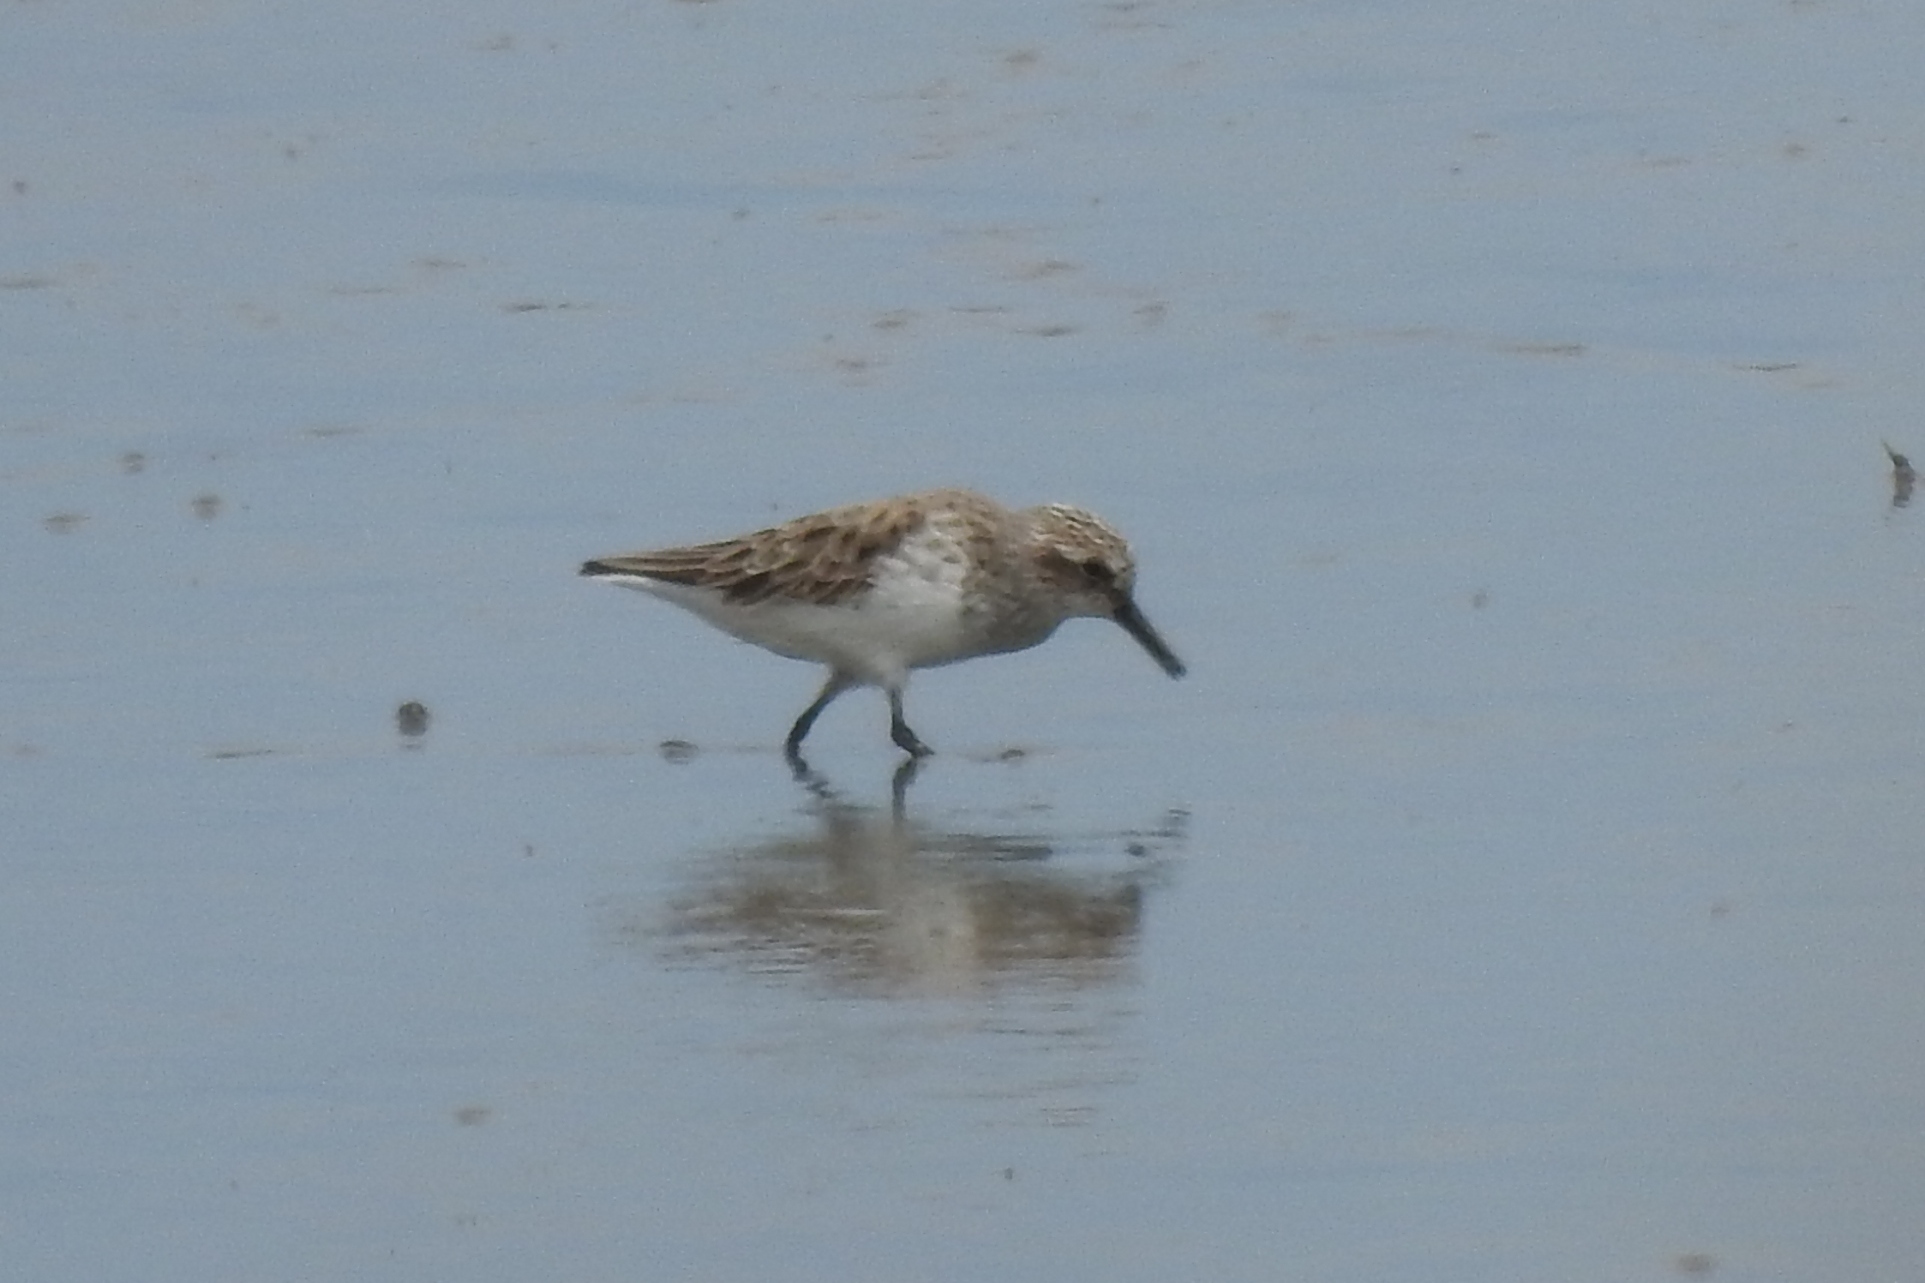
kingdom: Animalia
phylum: Chordata
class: Aves
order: Charadriiformes
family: Scolopacidae
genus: Calidris
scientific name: Calidris pusilla
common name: Semipalmated sandpiper
